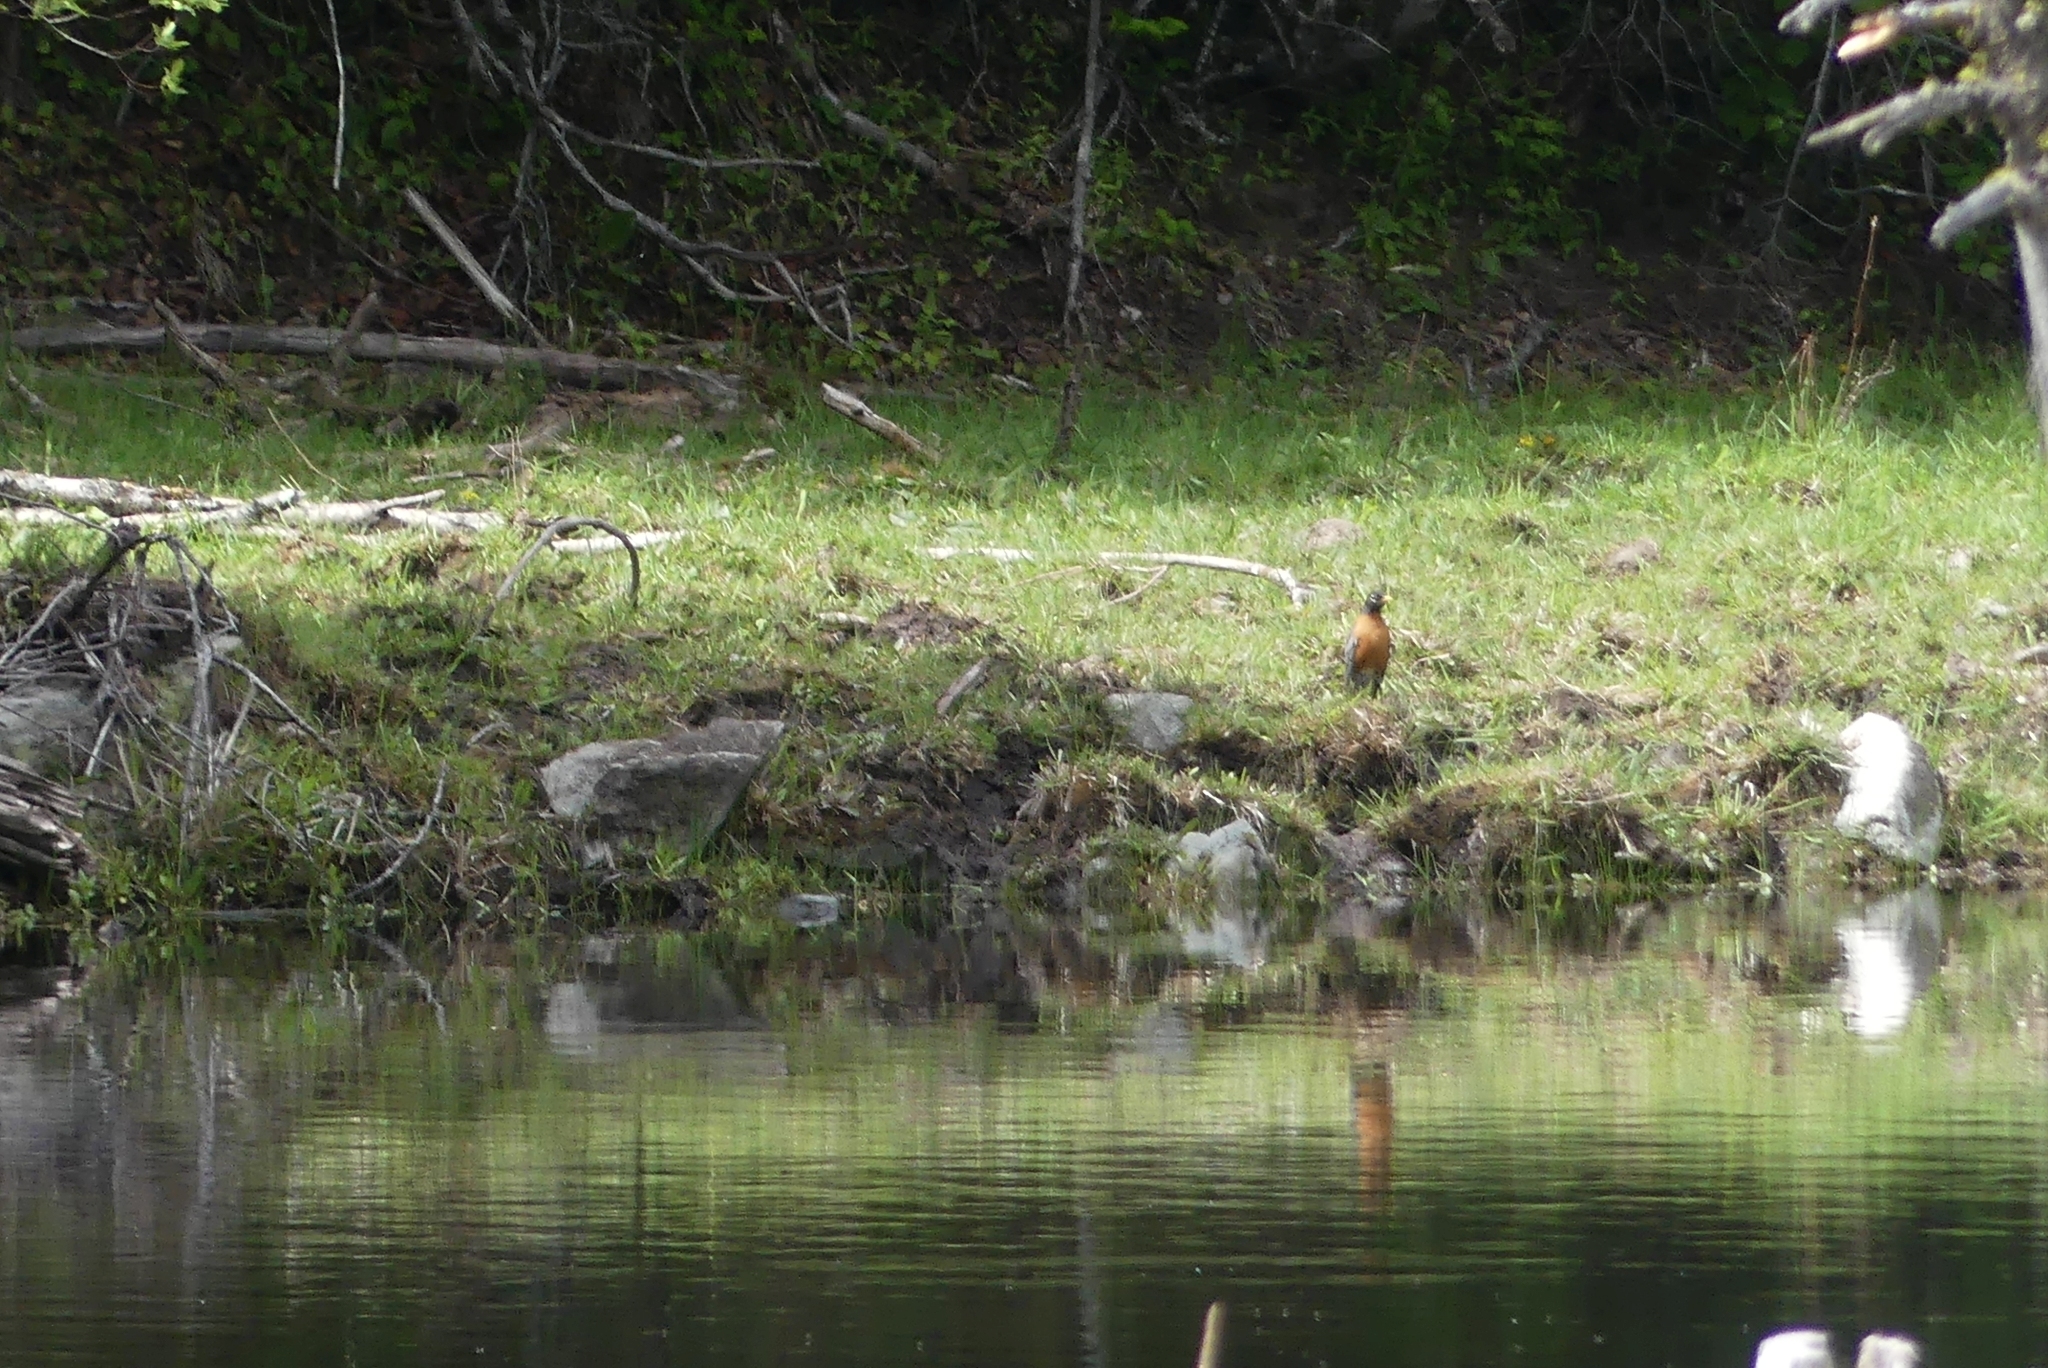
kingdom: Animalia
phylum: Chordata
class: Aves
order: Passeriformes
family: Turdidae
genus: Turdus
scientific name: Turdus migratorius
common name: American robin
